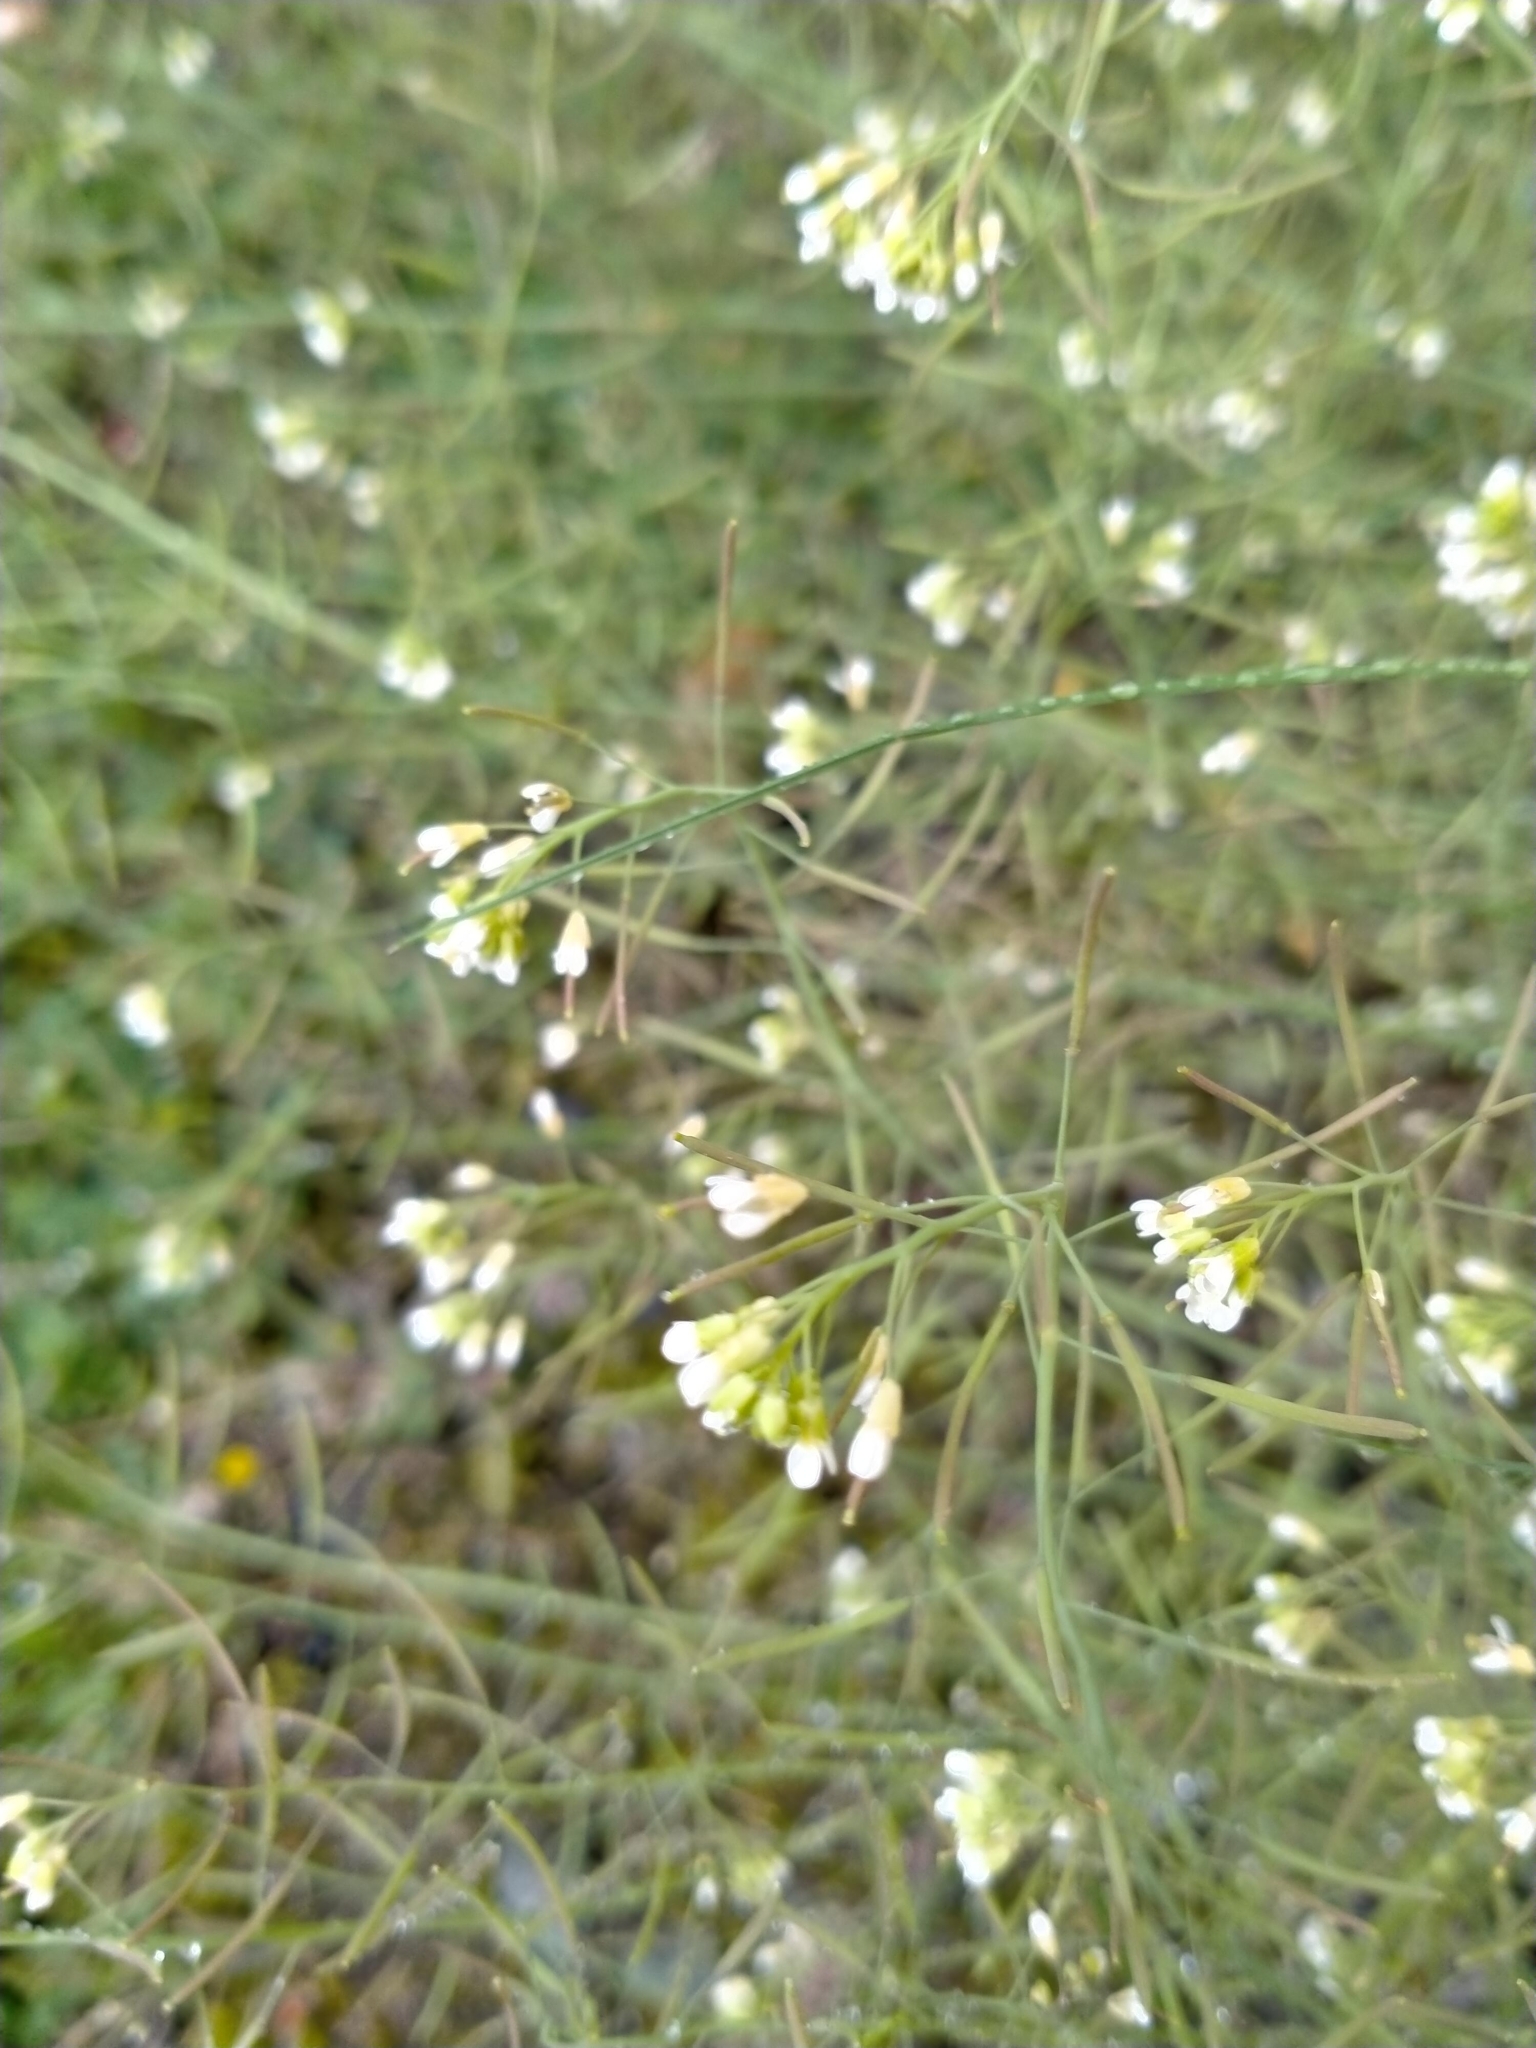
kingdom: Plantae
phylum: Tracheophyta
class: Magnoliopsida
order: Brassicales
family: Brassicaceae
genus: Arabidopsis
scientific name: Arabidopsis thaliana
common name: Thale cress
